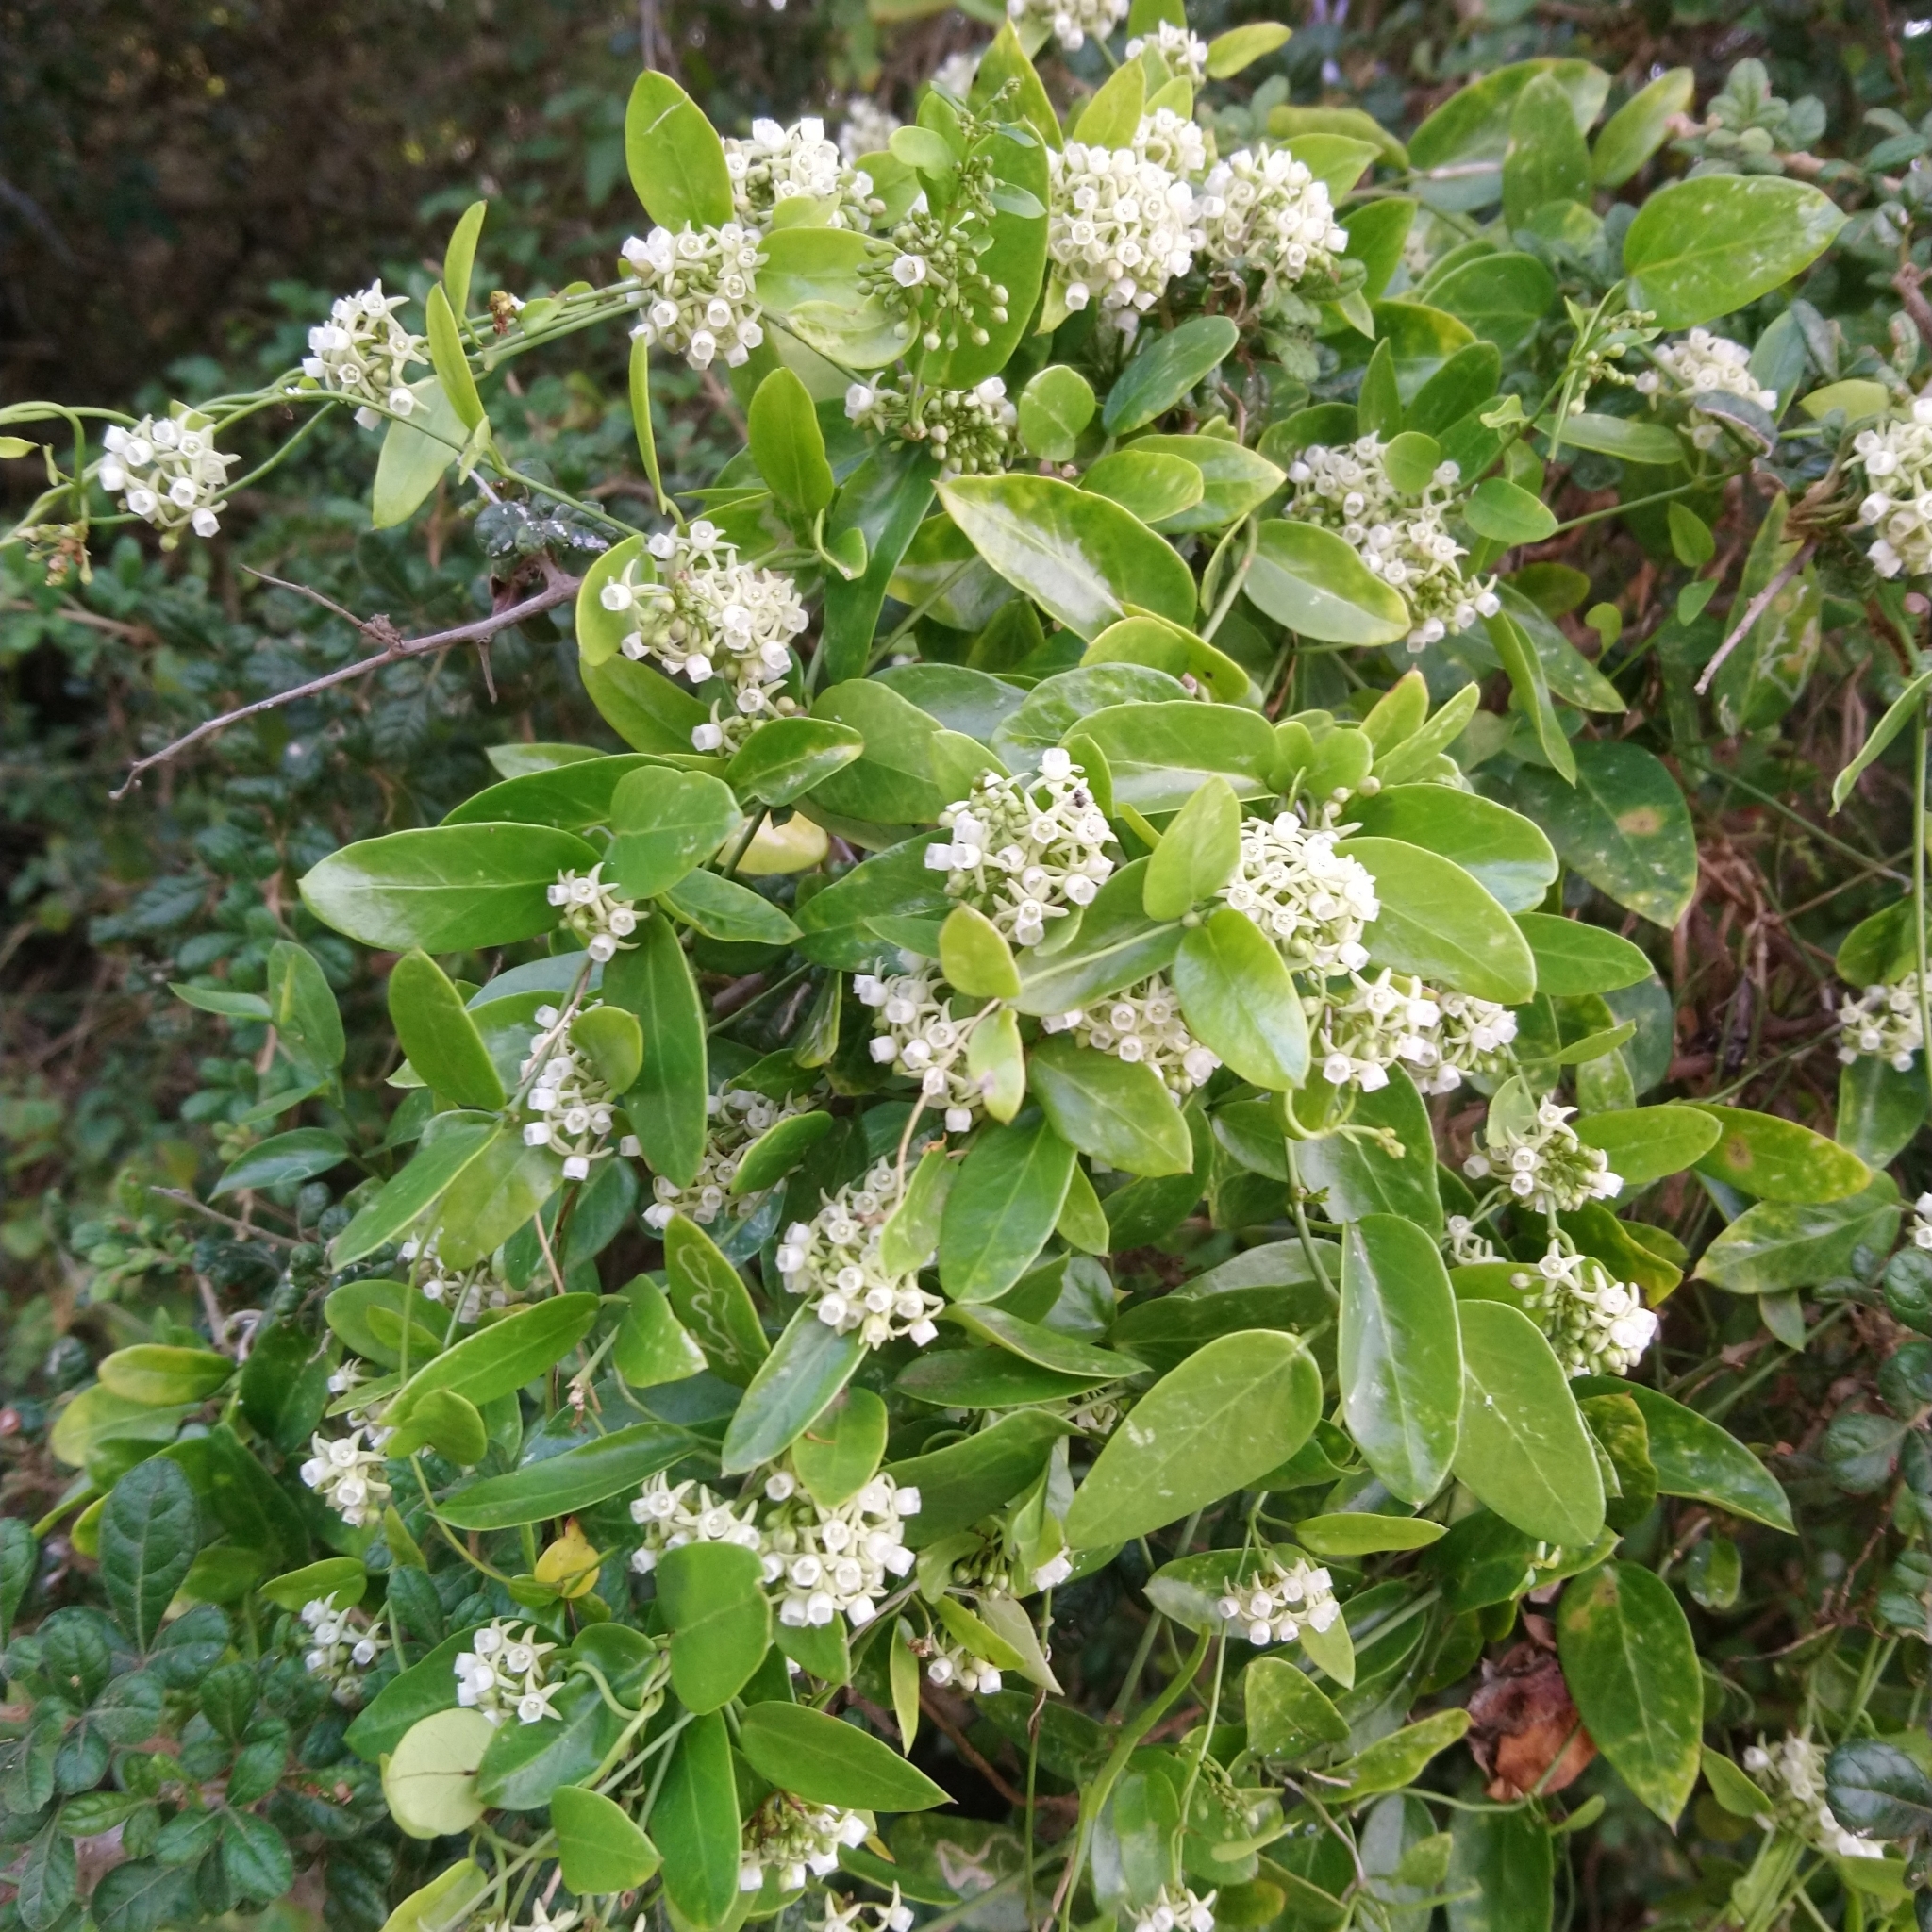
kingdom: Plantae
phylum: Tracheophyta
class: Magnoliopsida
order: Gentianales
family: Apocynaceae
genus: Cynanchum
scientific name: Cynanchum ellipticum
